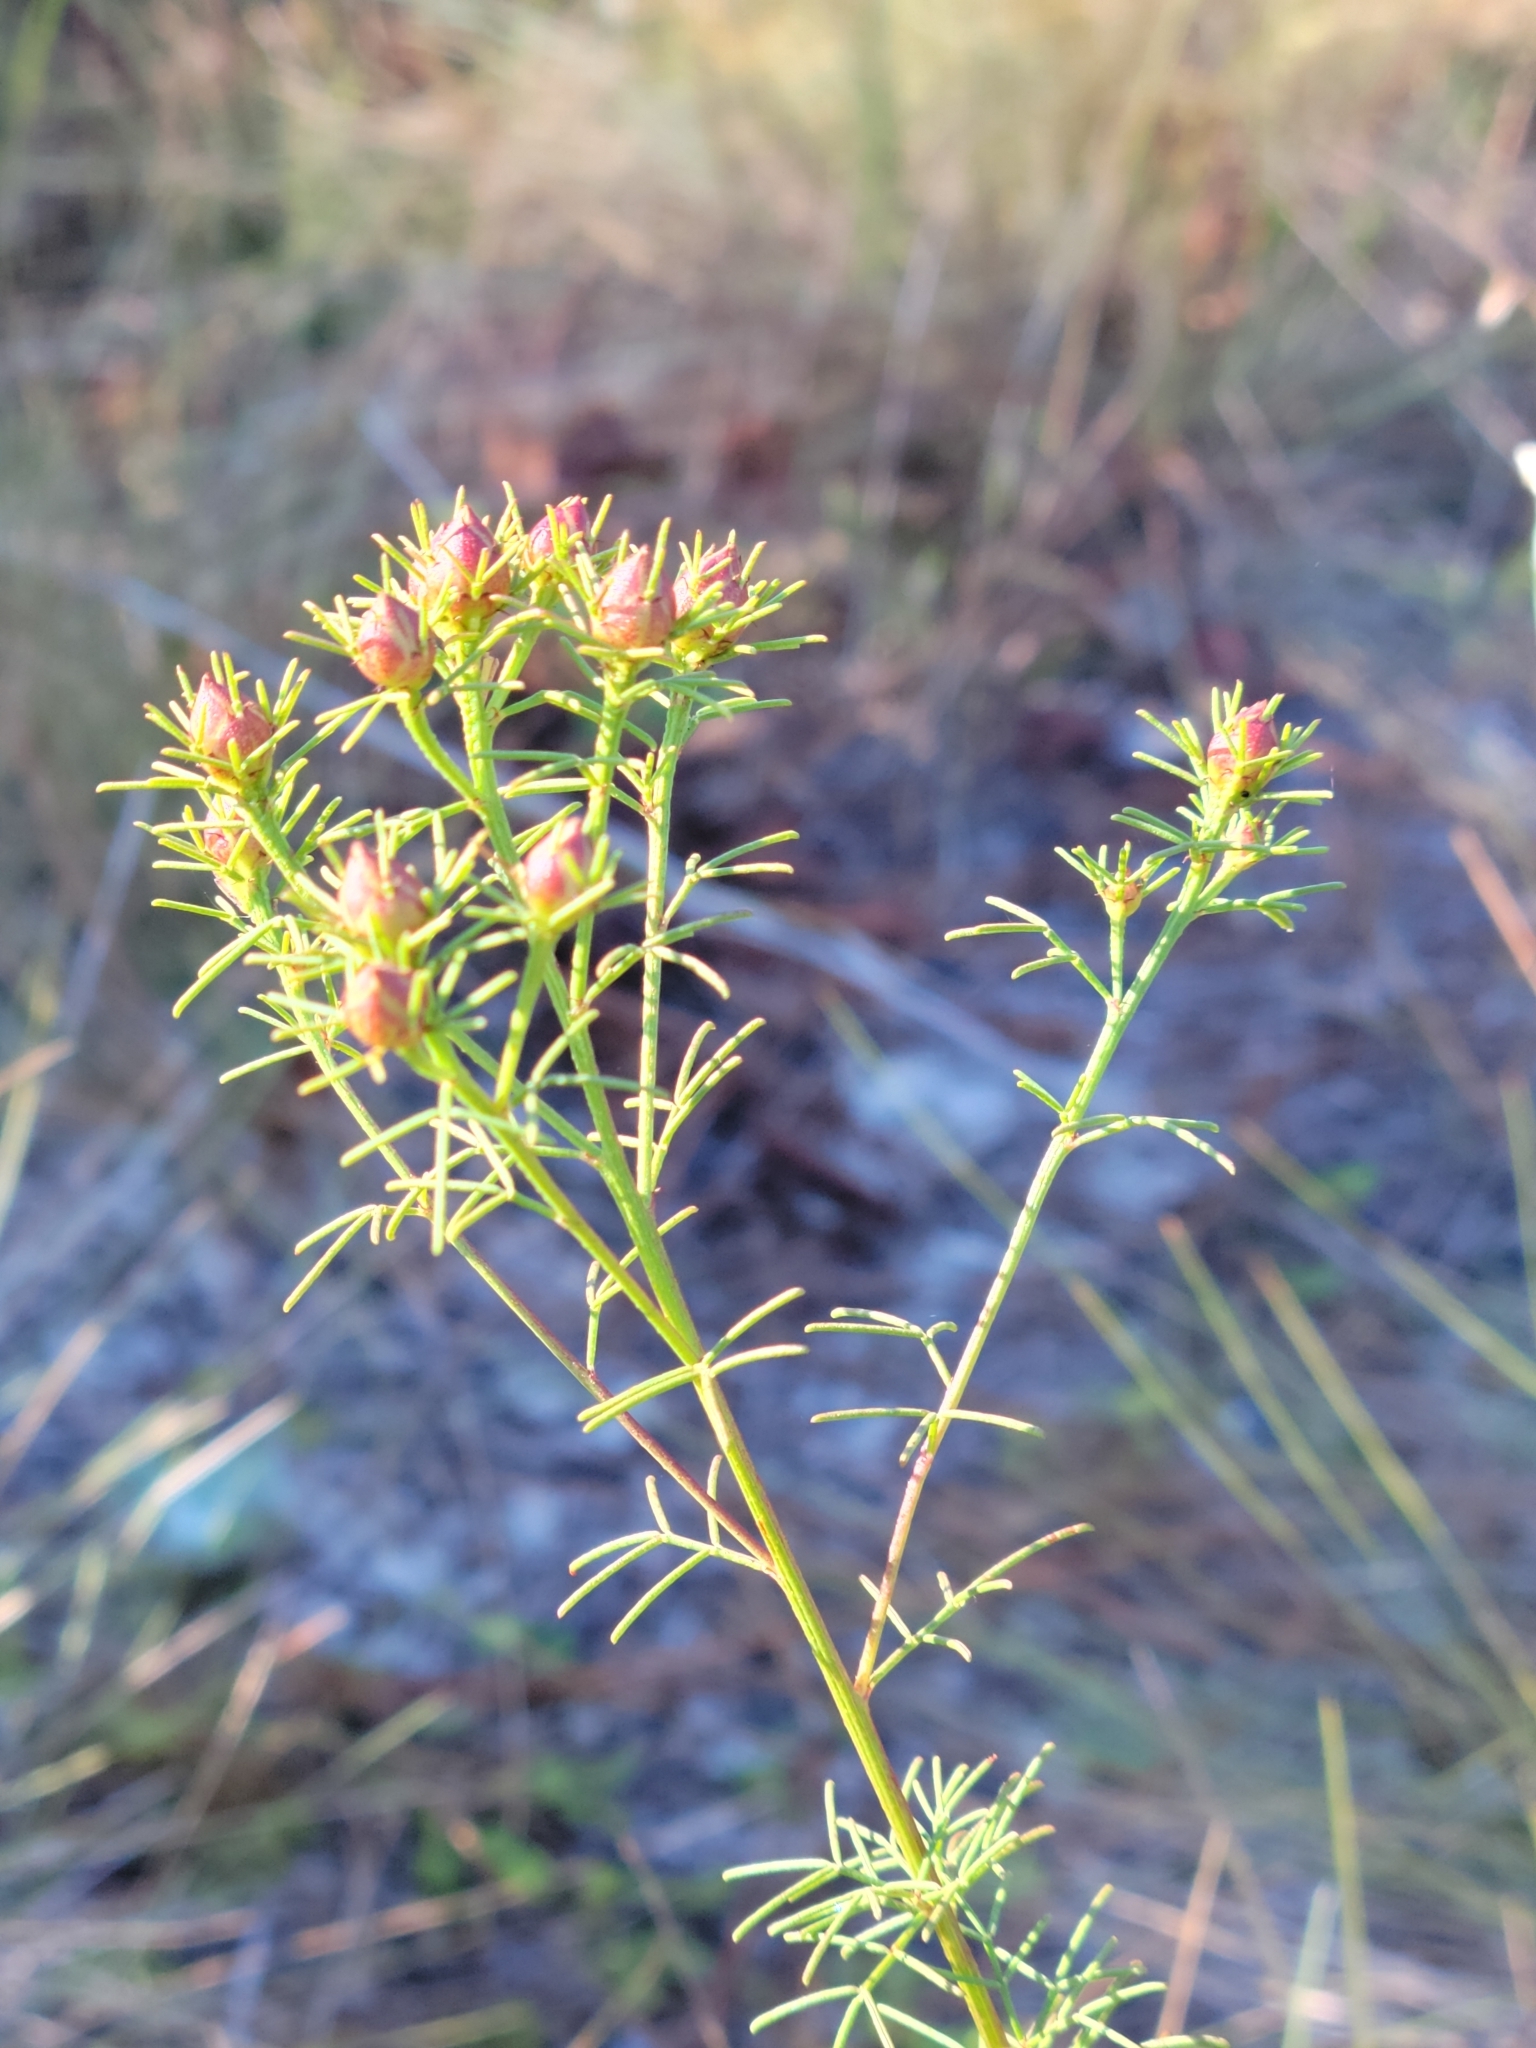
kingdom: Plantae
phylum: Tracheophyta
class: Magnoliopsida
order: Fabales
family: Fabaceae
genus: Dalea
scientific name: Dalea pinnata
